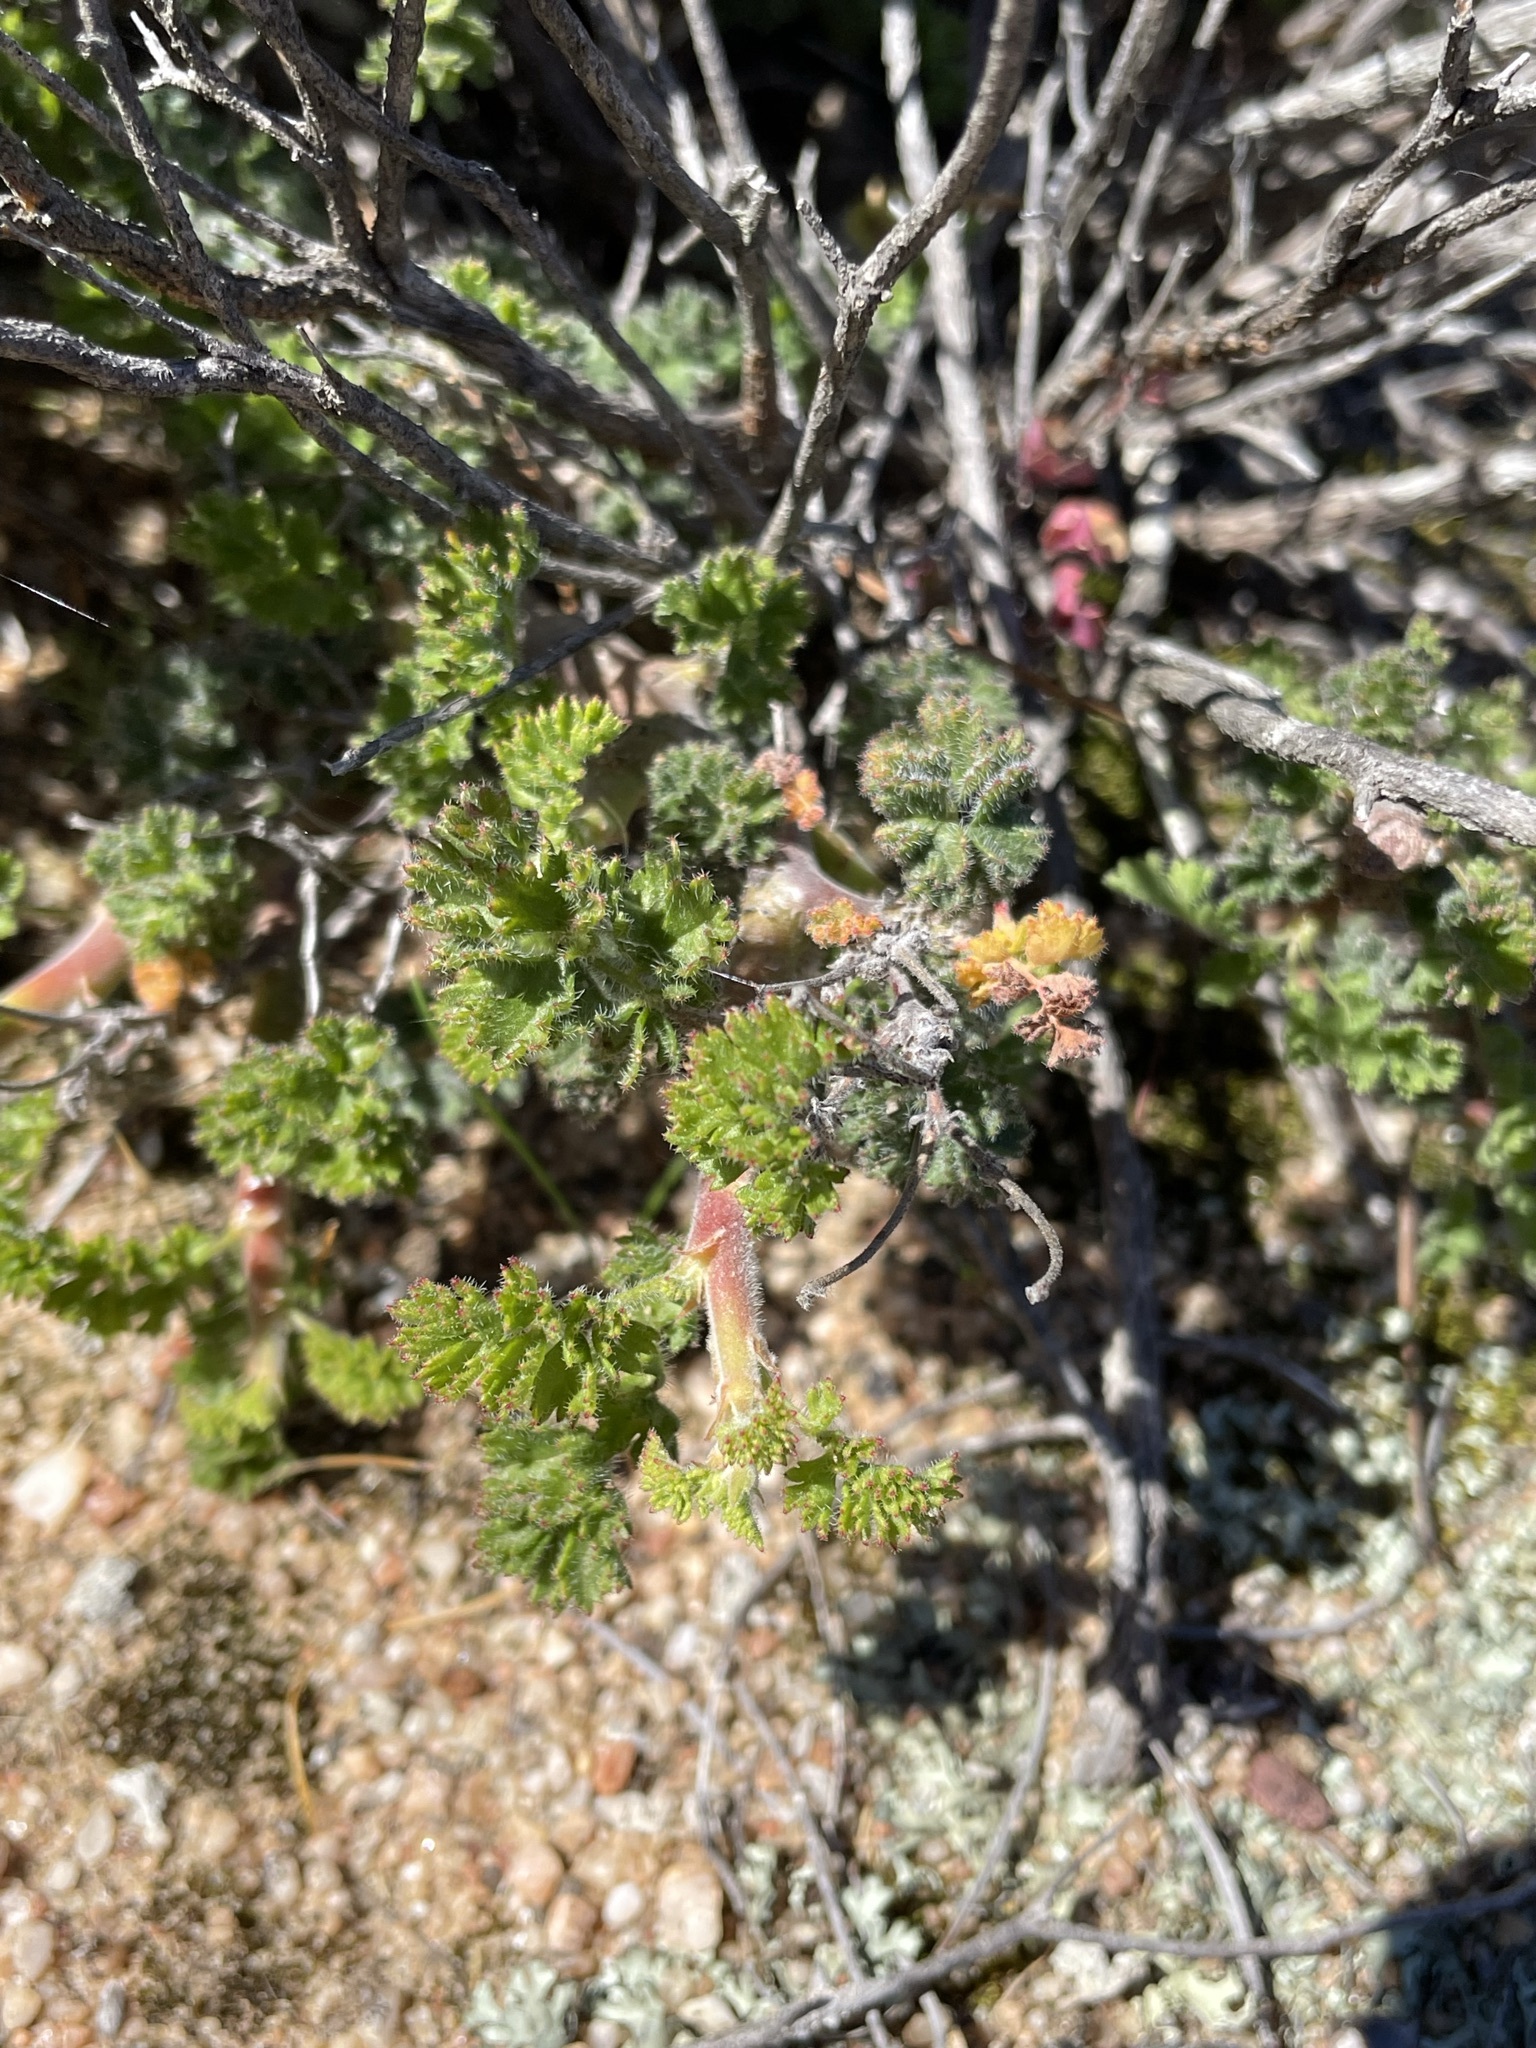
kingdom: Plantae
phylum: Tracheophyta
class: Magnoliopsida
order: Geraniales
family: Geraniaceae
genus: Pelargonium
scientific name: Pelargonium alternans
